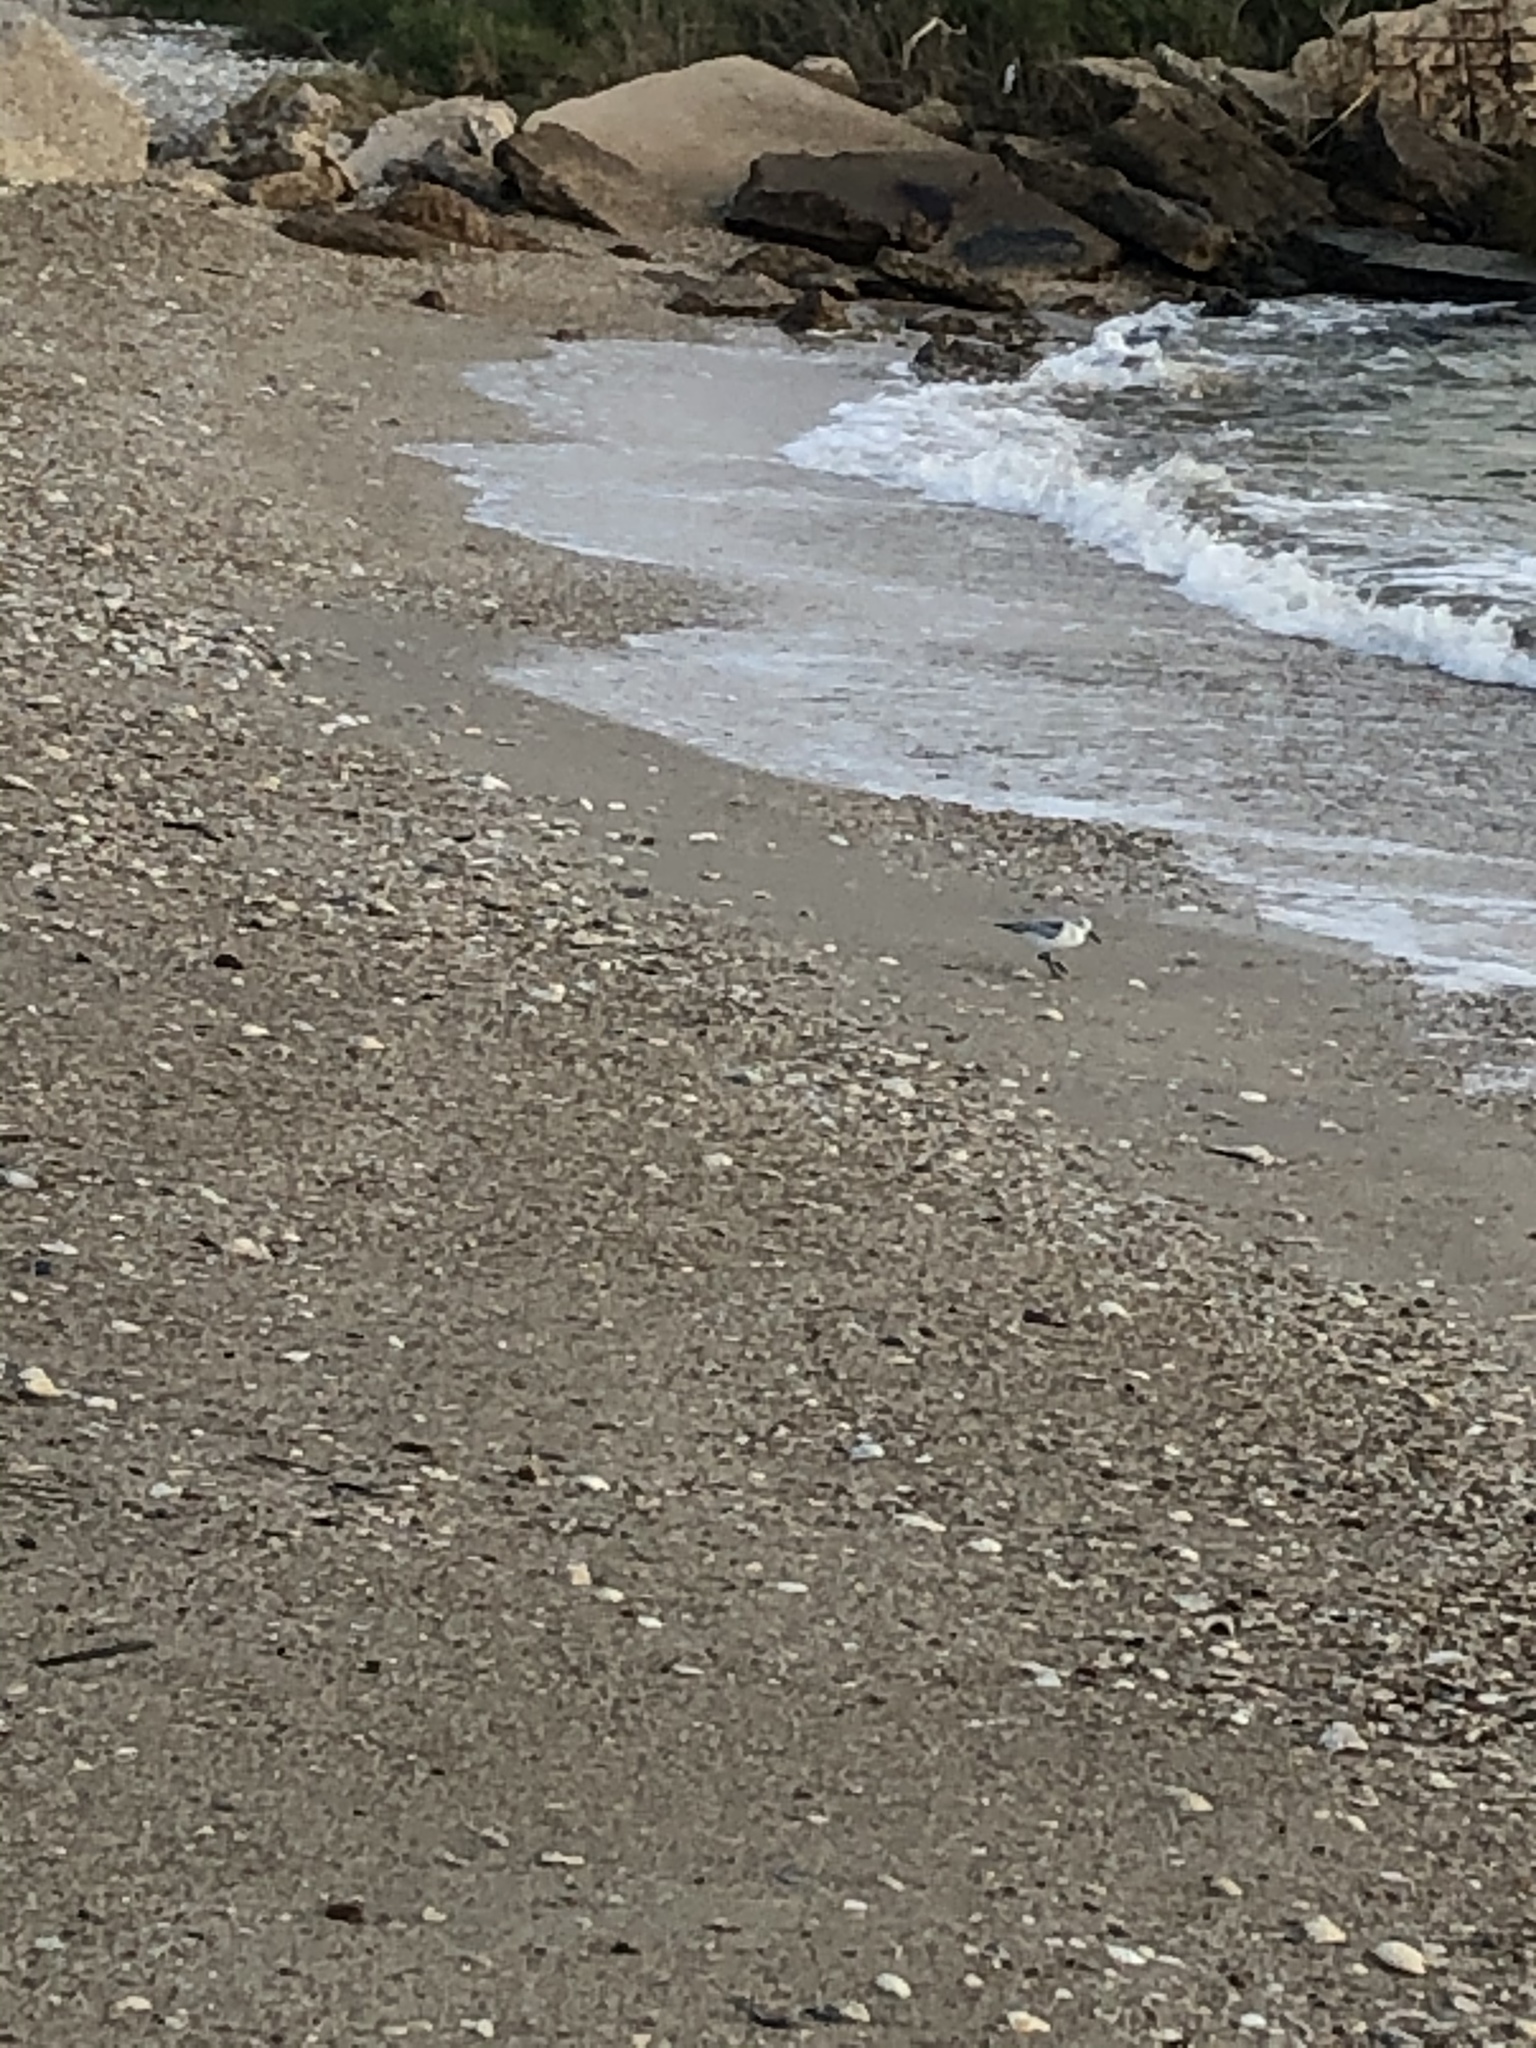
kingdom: Animalia
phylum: Chordata
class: Aves
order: Charadriiformes
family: Scolopacidae
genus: Calidris
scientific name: Calidris alba
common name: Sanderling
